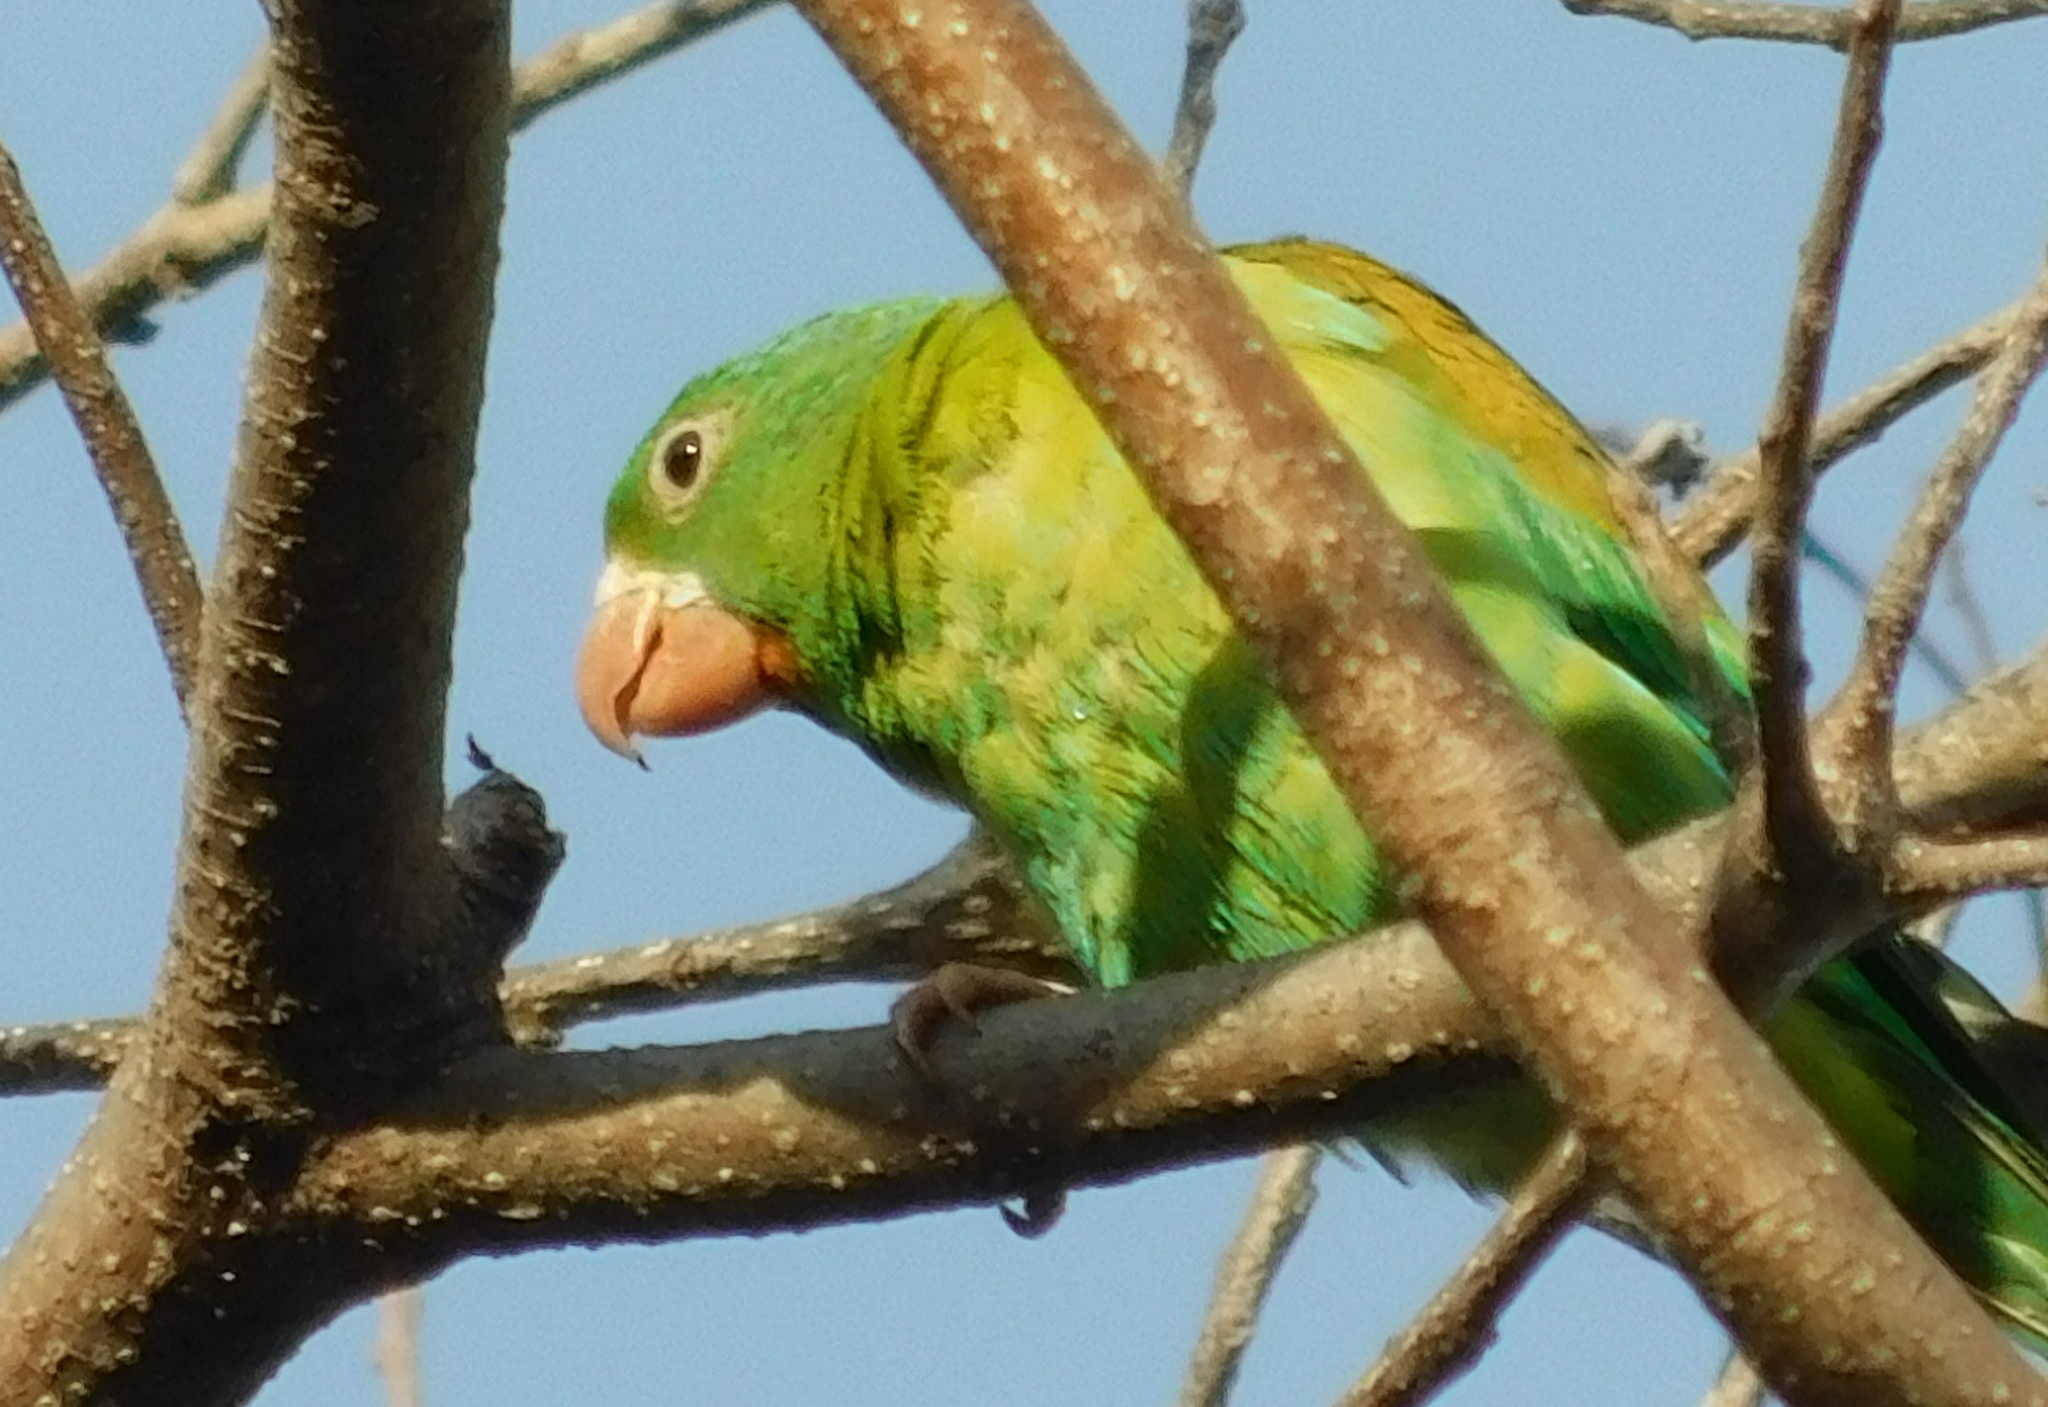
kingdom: Animalia
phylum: Chordata
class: Aves
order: Psittaciformes
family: Psittacidae
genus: Brotogeris
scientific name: Brotogeris jugularis
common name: Orange-chinned parakeet
